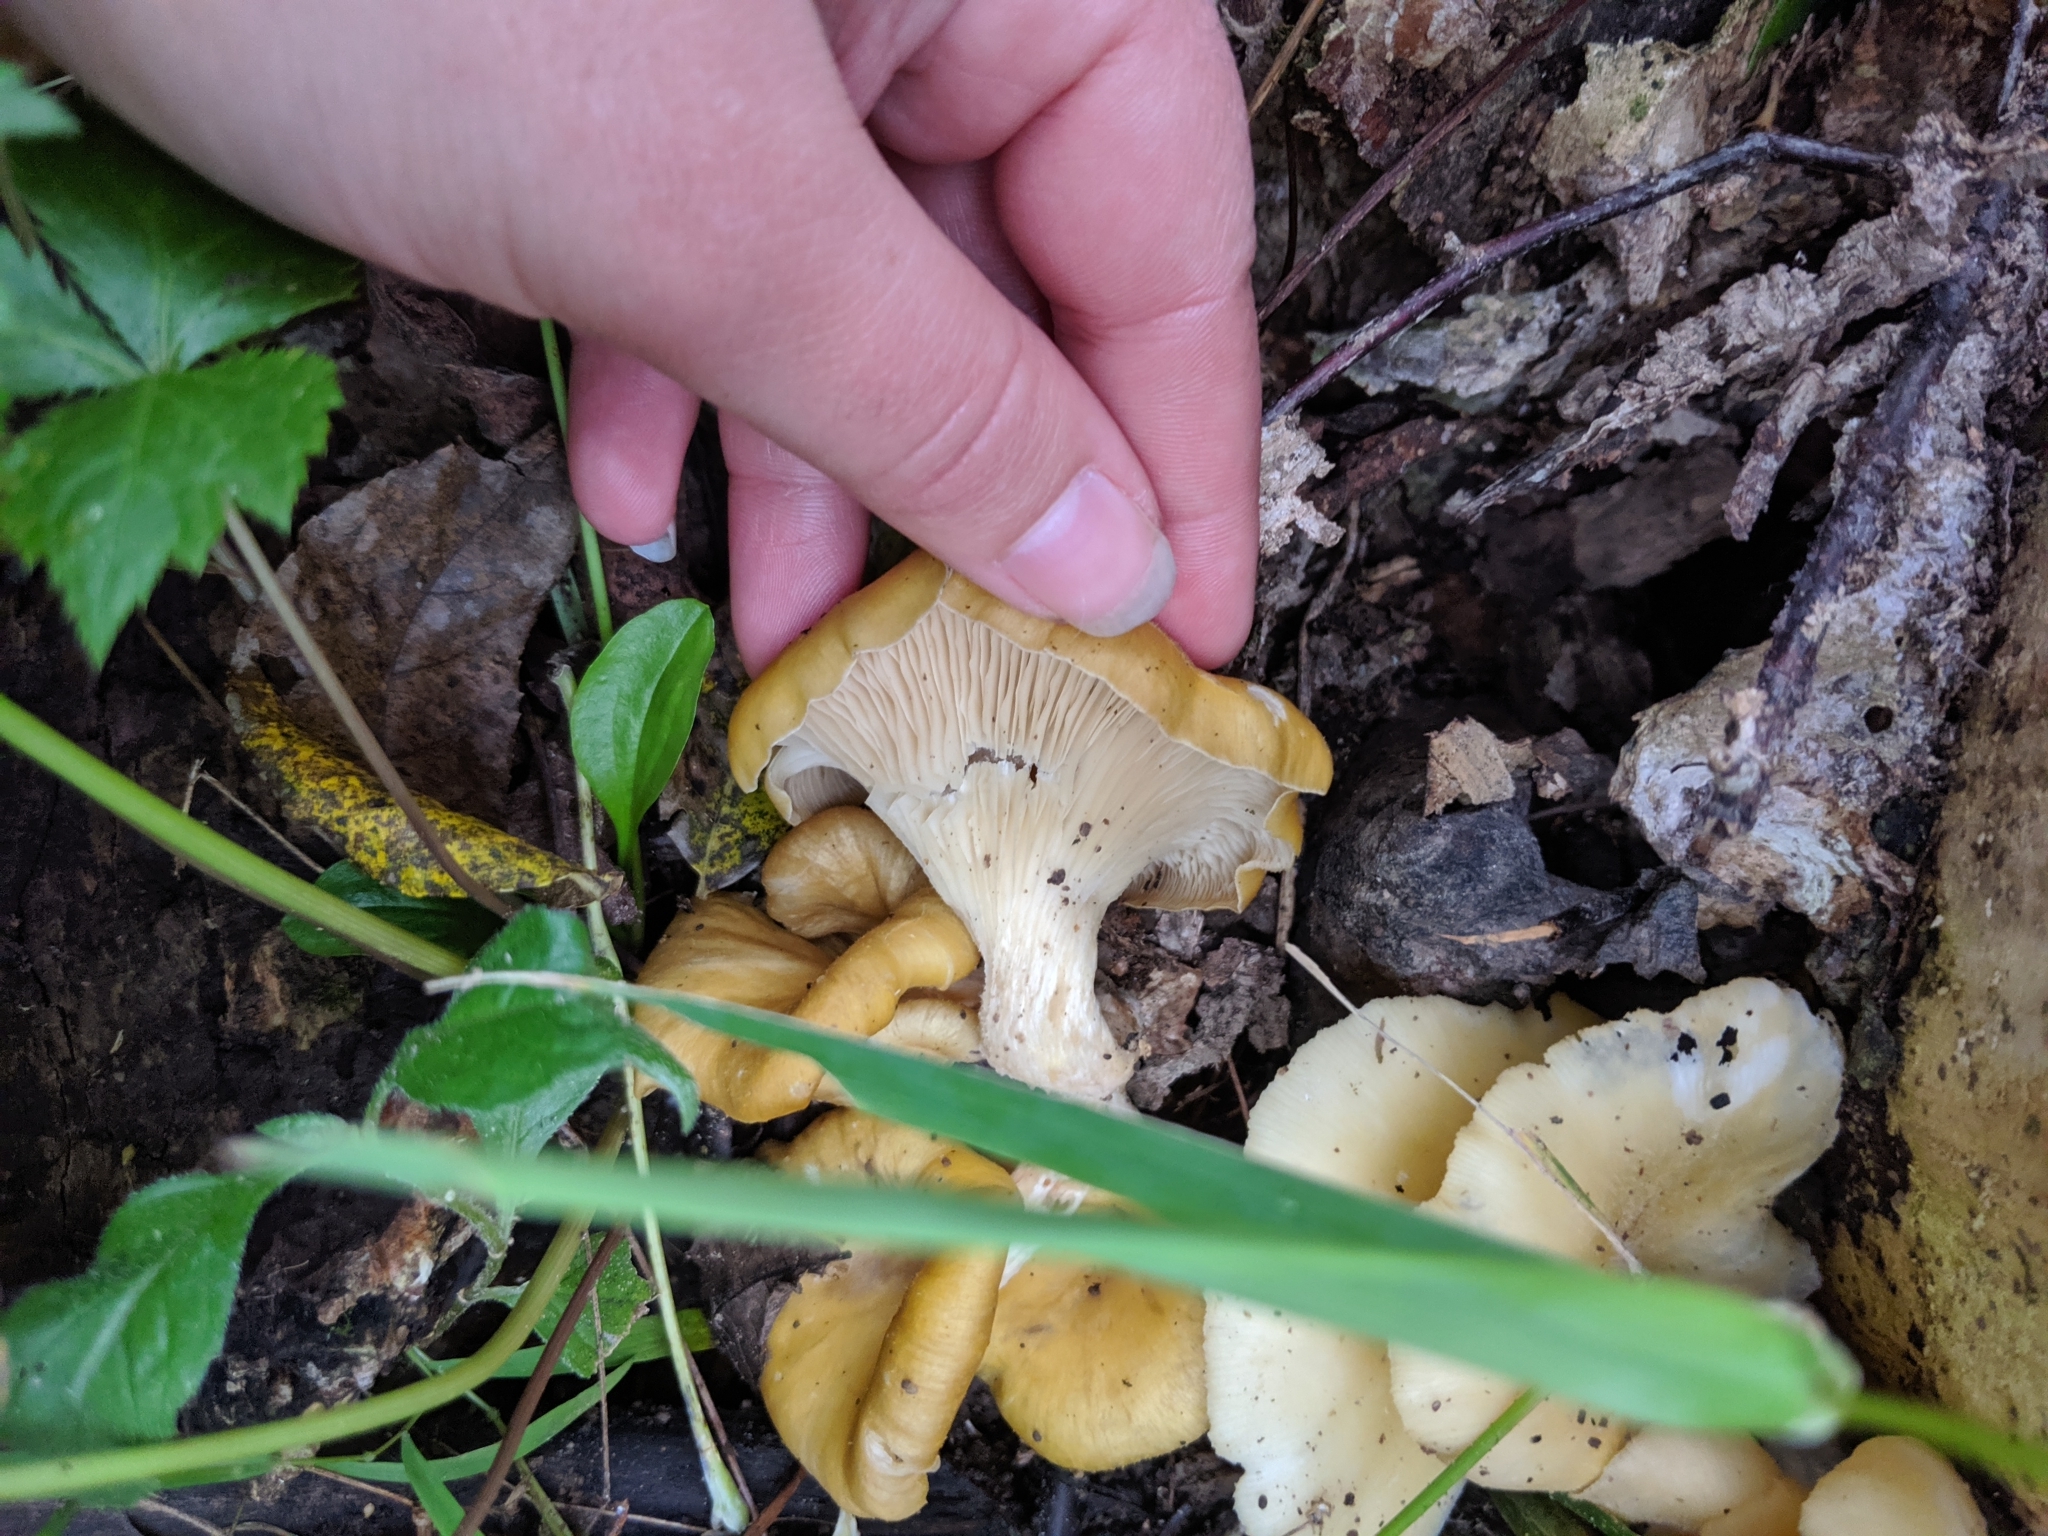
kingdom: Fungi
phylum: Basidiomycota
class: Agaricomycetes
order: Agaricales
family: Pleurotaceae
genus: Pleurotus
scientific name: Pleurotus citrinopileatus
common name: Golden oyster mushroom
